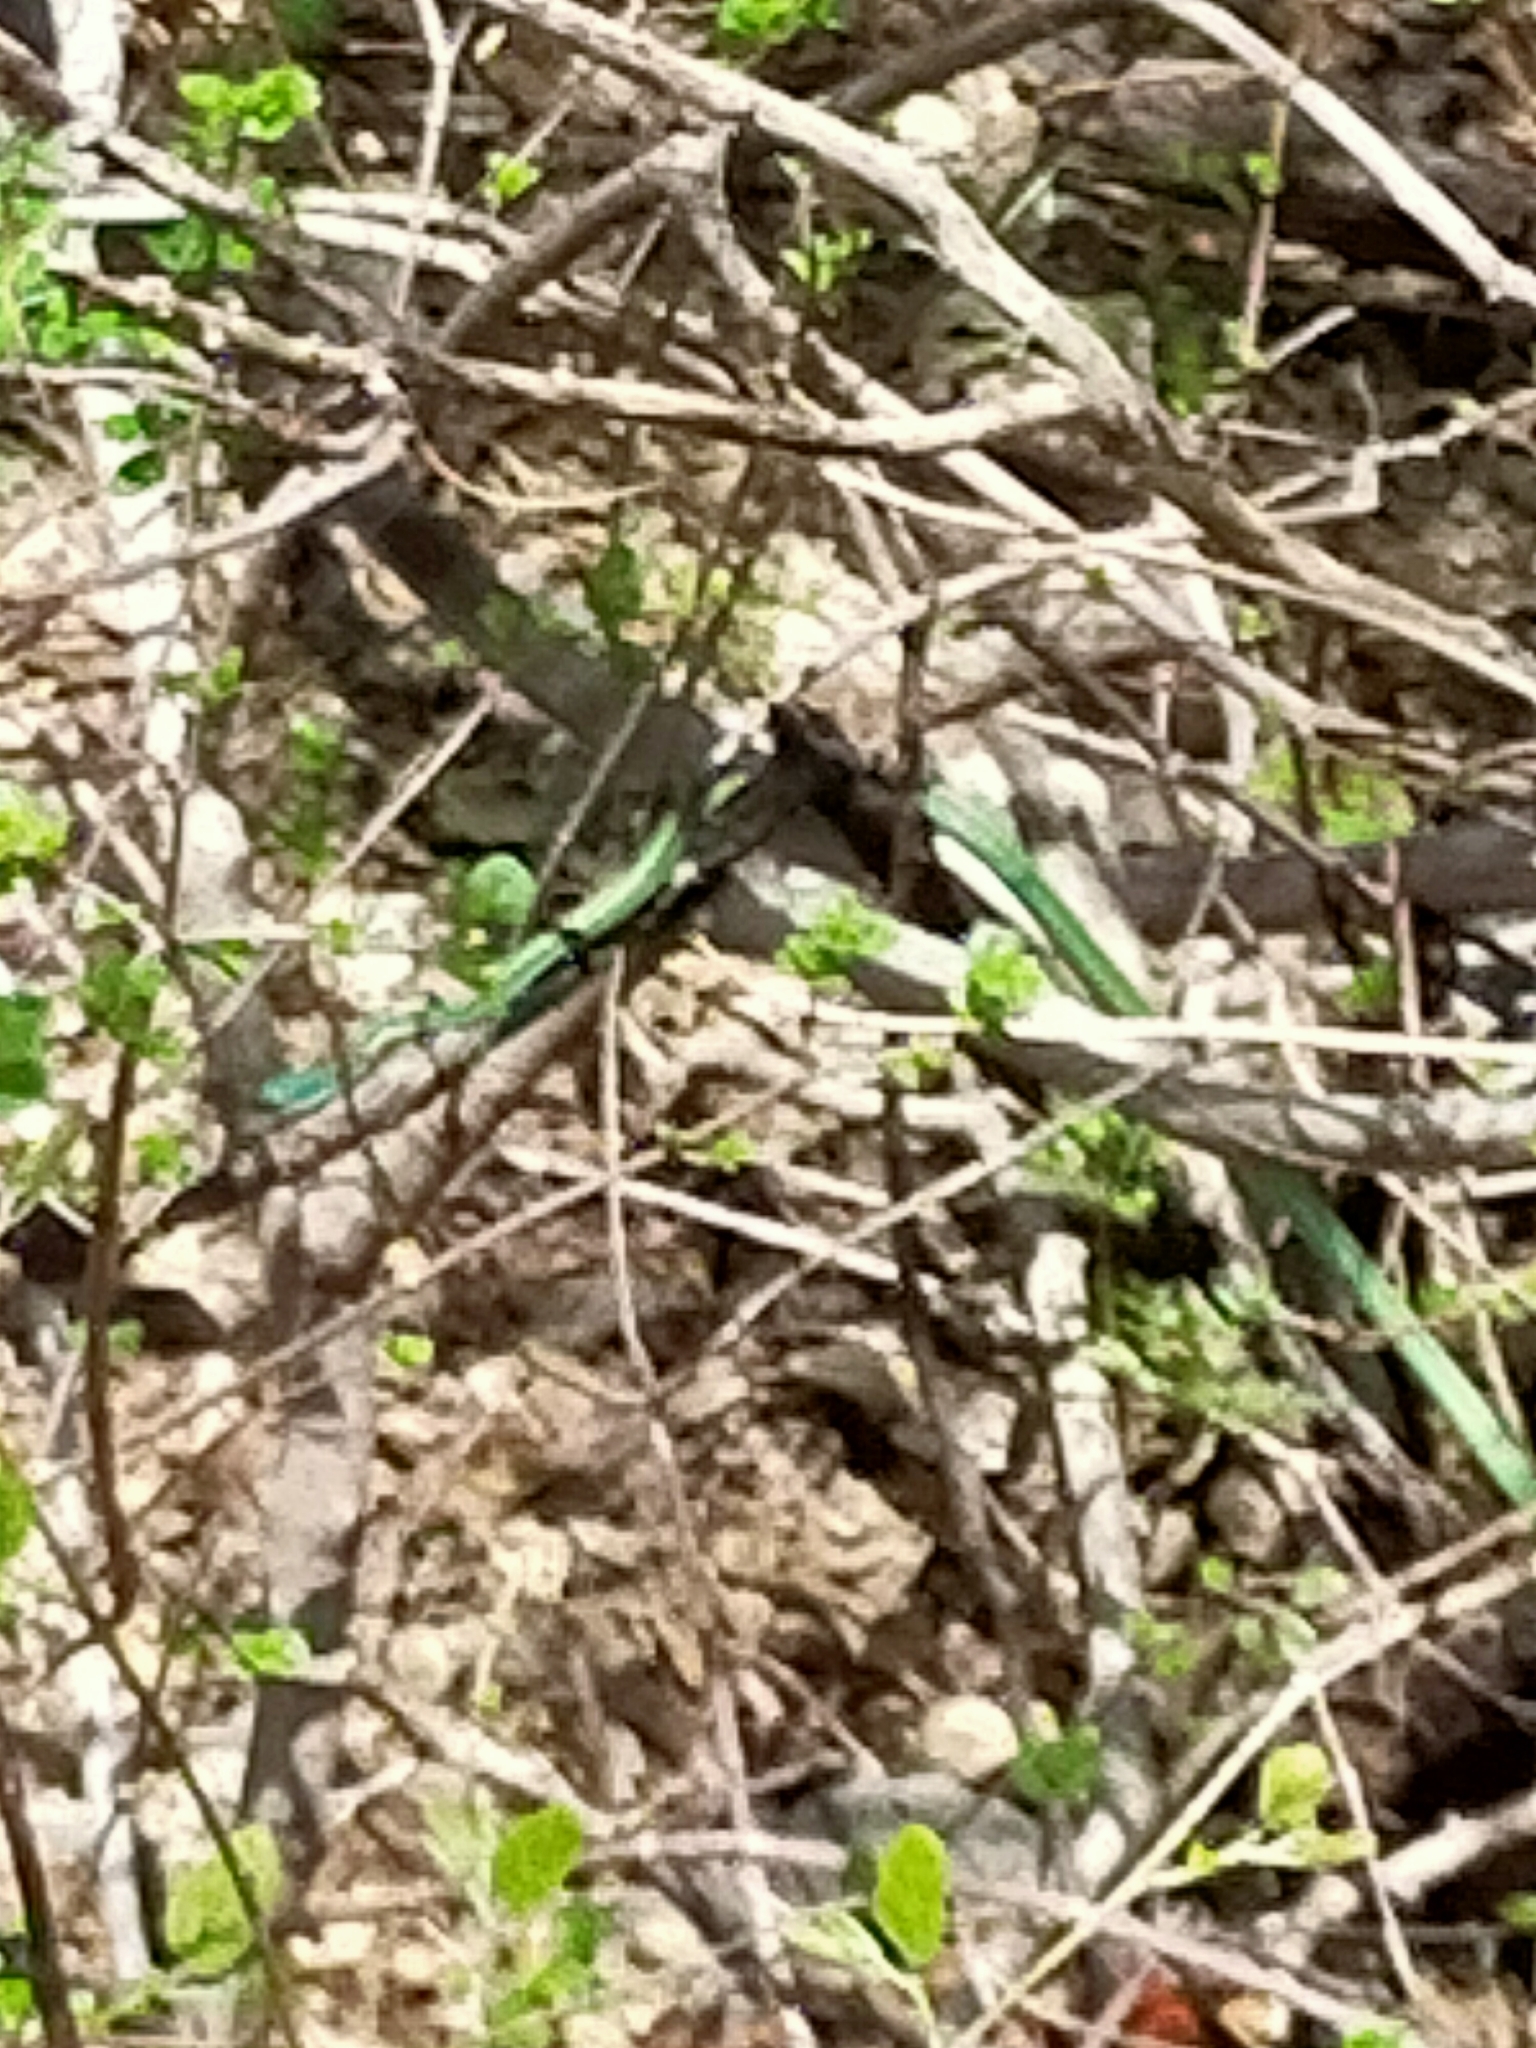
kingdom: Animalia
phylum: Chordata
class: Squamata
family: Colubridae
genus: Leptophis
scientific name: Leptophis diplotropis
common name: Pacific coast parrot snake
